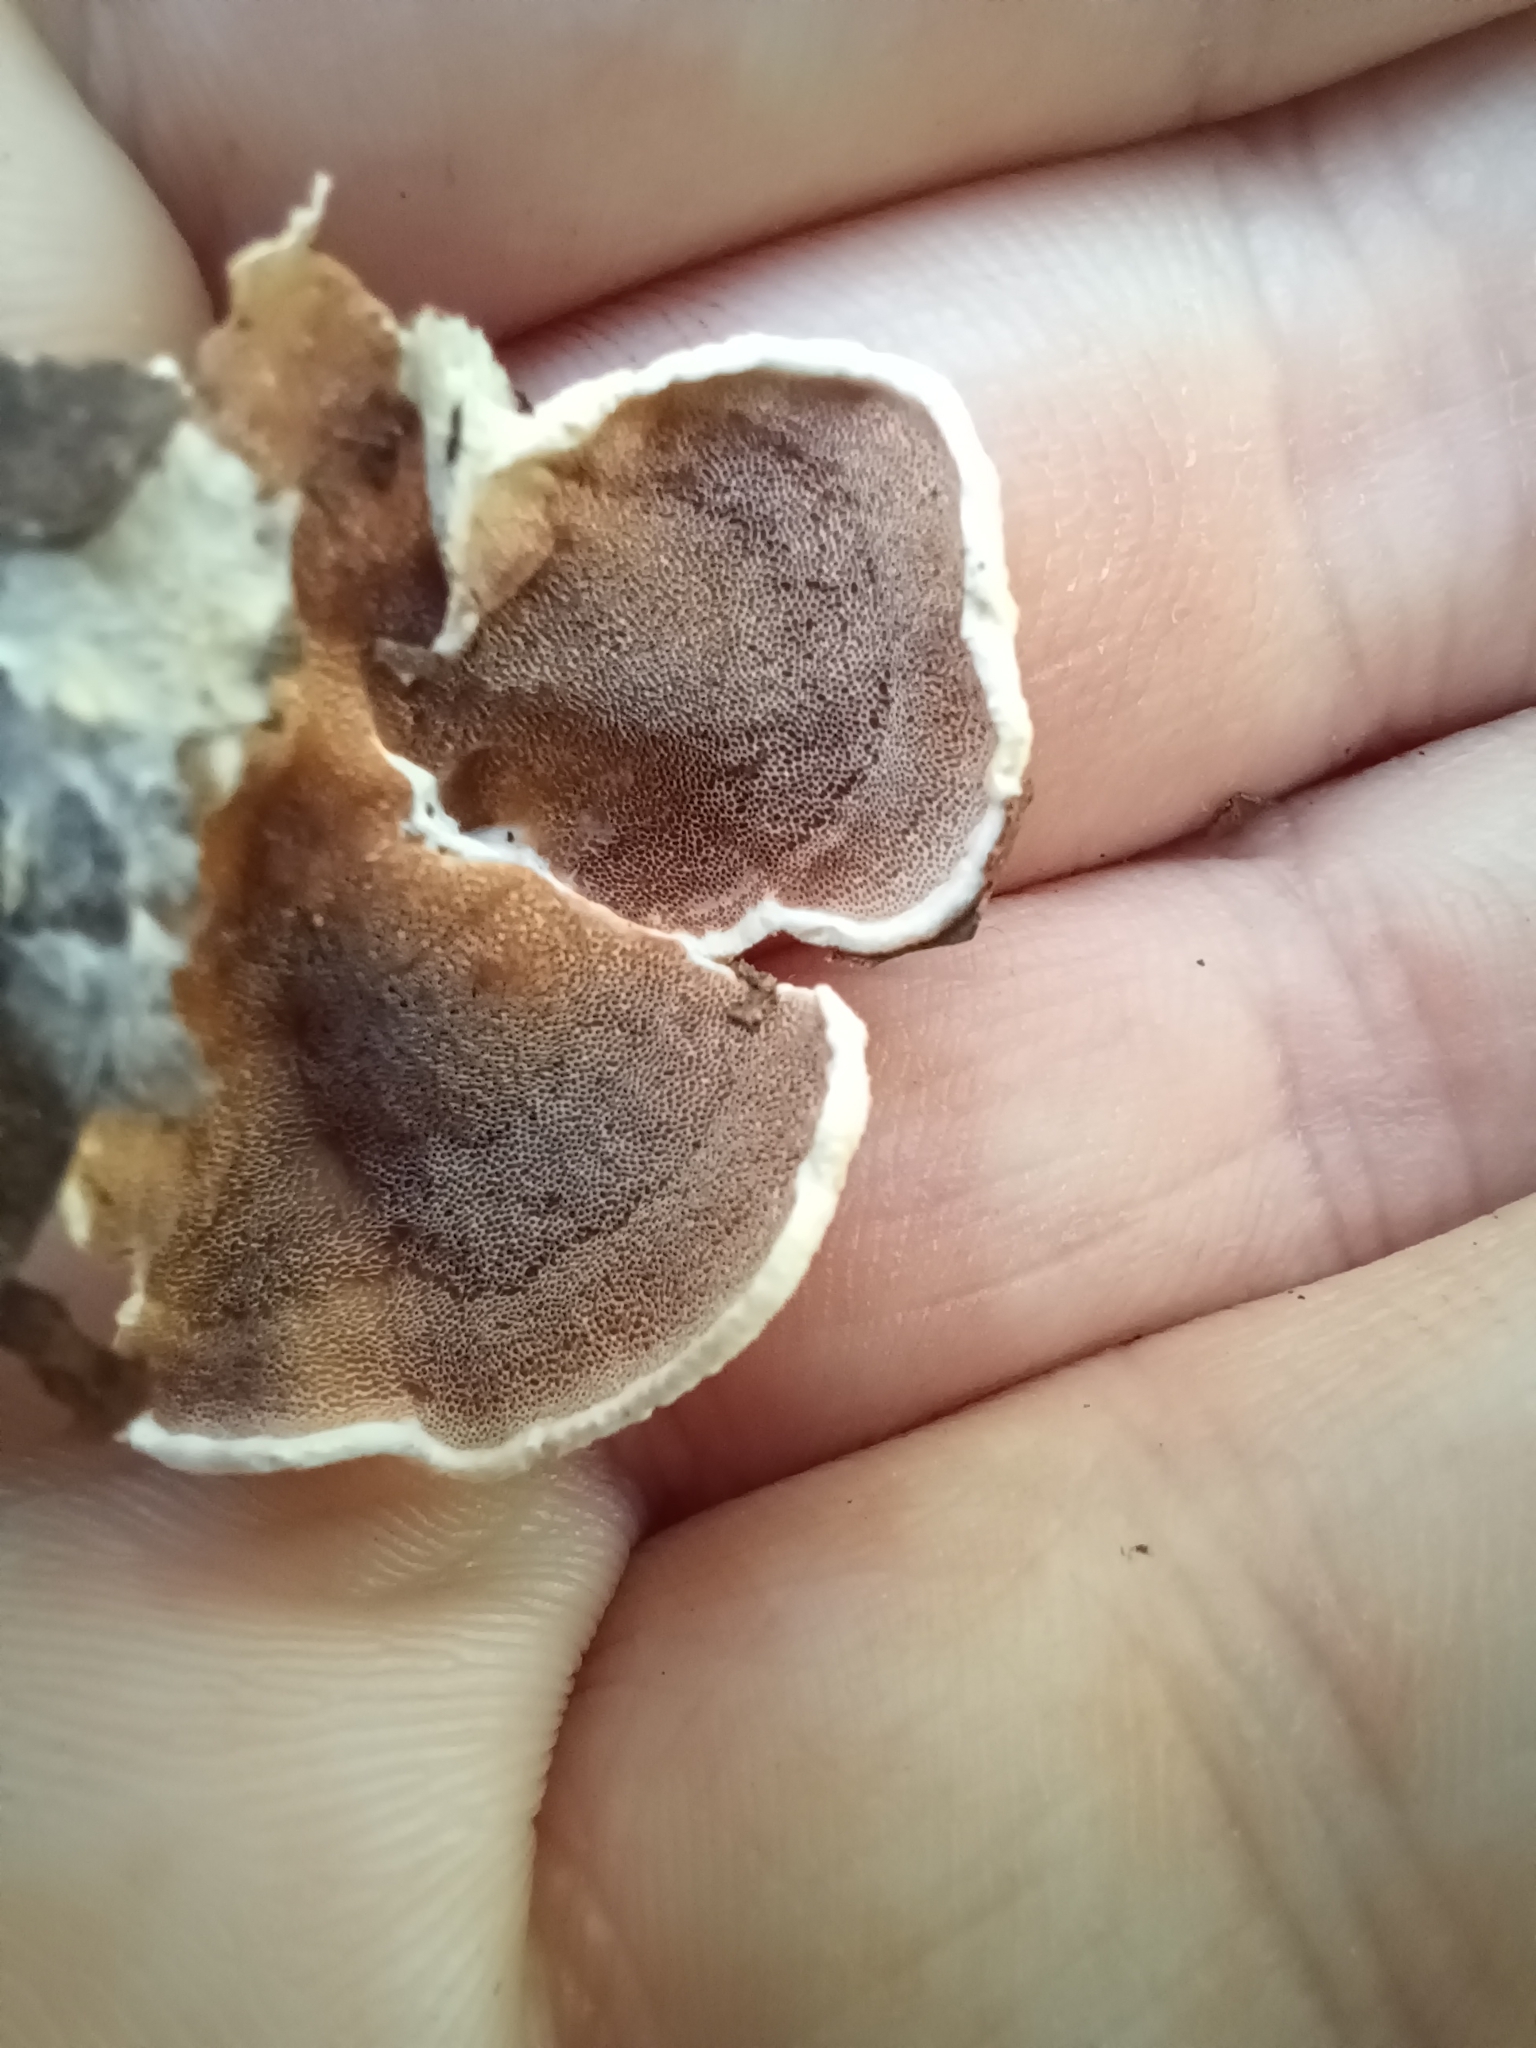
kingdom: Fungi
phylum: Basidiomycota
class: Agaricomycetes
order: Polyporales
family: Irpicaceae
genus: Vitreoporus
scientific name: Vitreoporus dichrous
